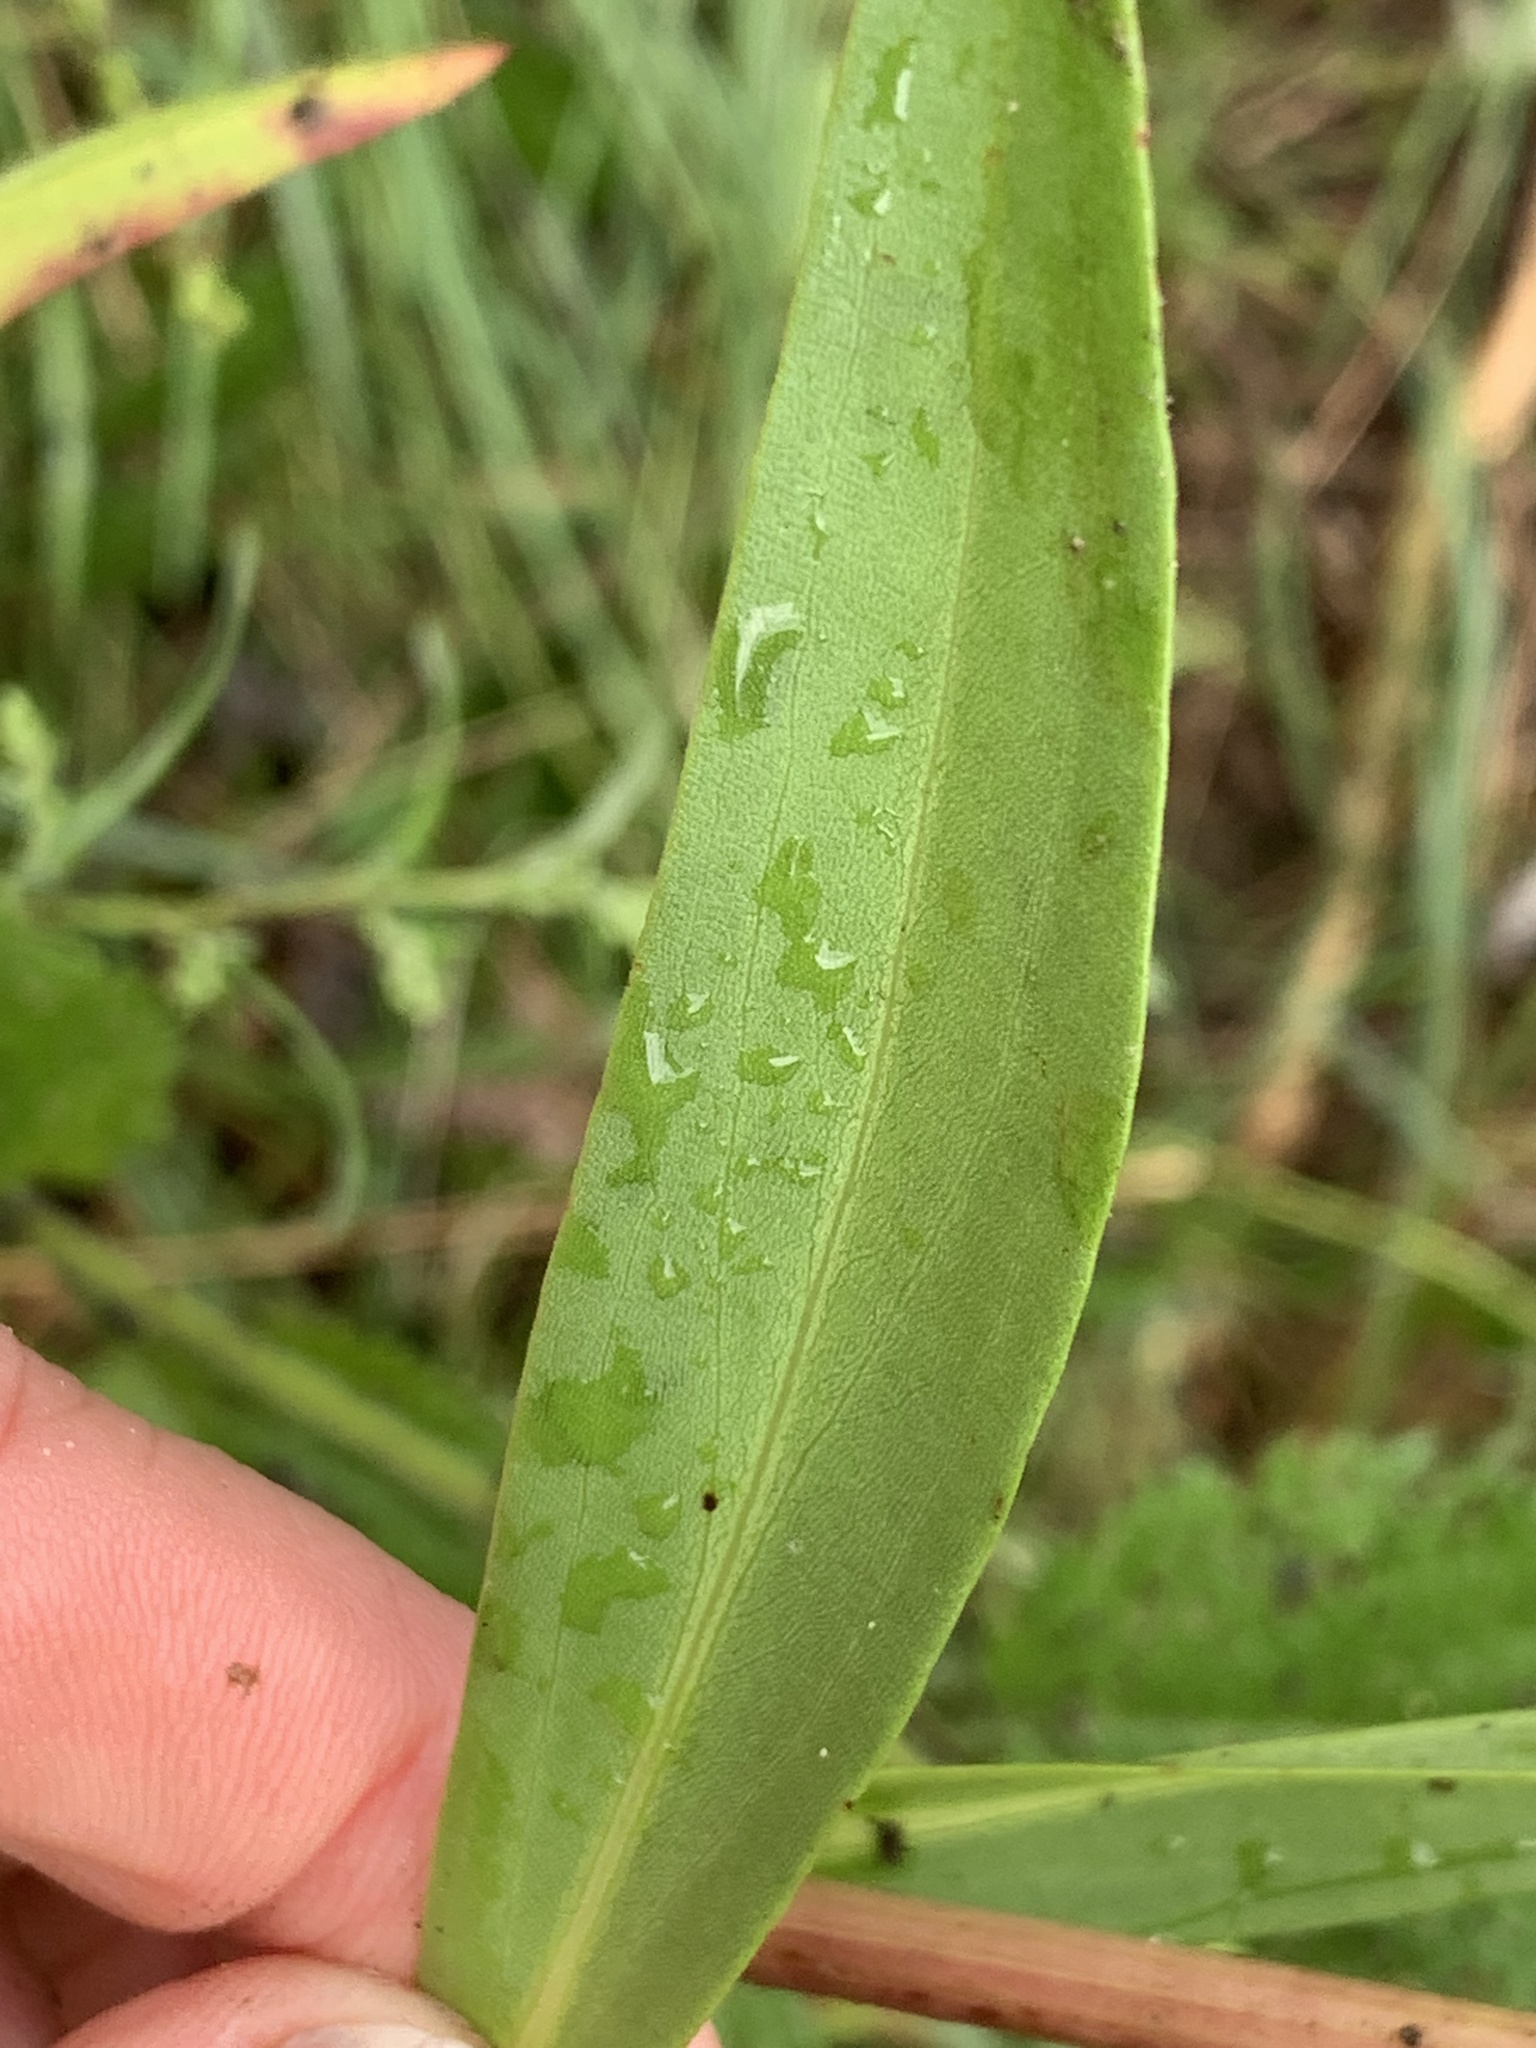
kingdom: Plantae
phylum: Tracheophyta
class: Magnoliopsida
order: Asterales
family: Asteraceae
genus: Solidago
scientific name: Solidago sempervirens
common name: Salt-marsh goldenrod
